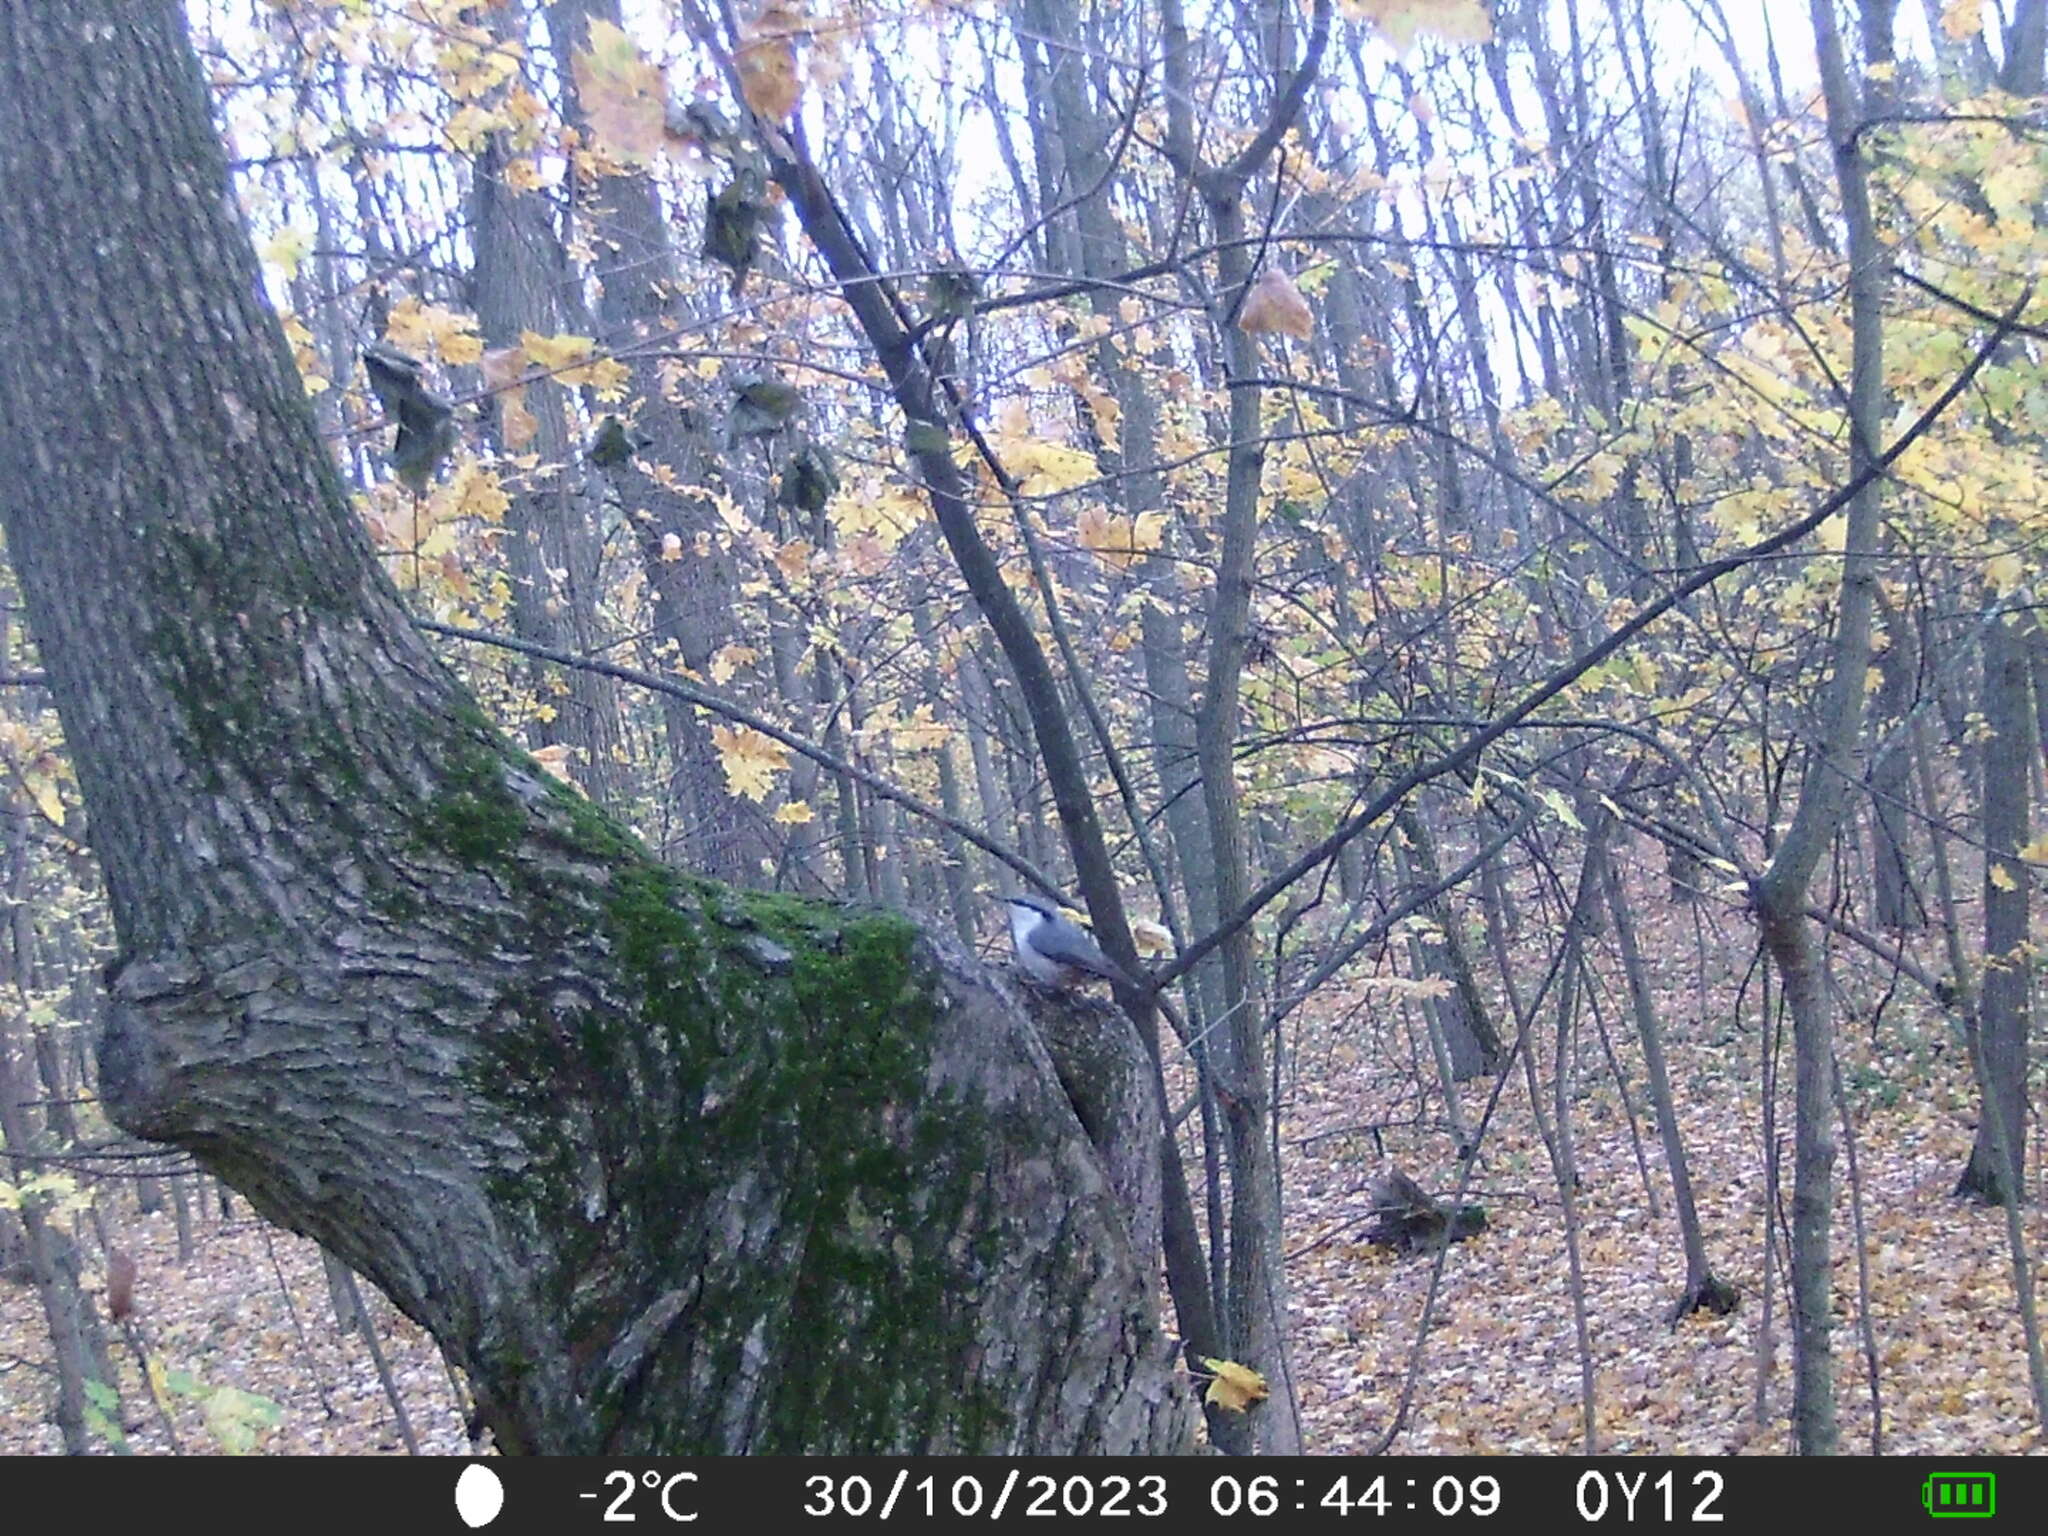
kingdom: Animalia
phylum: Chordata
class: Aves
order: Passeriformes
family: Sittidae
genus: Sitta
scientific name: Sitta europaea
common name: Eurasian nuthatch
